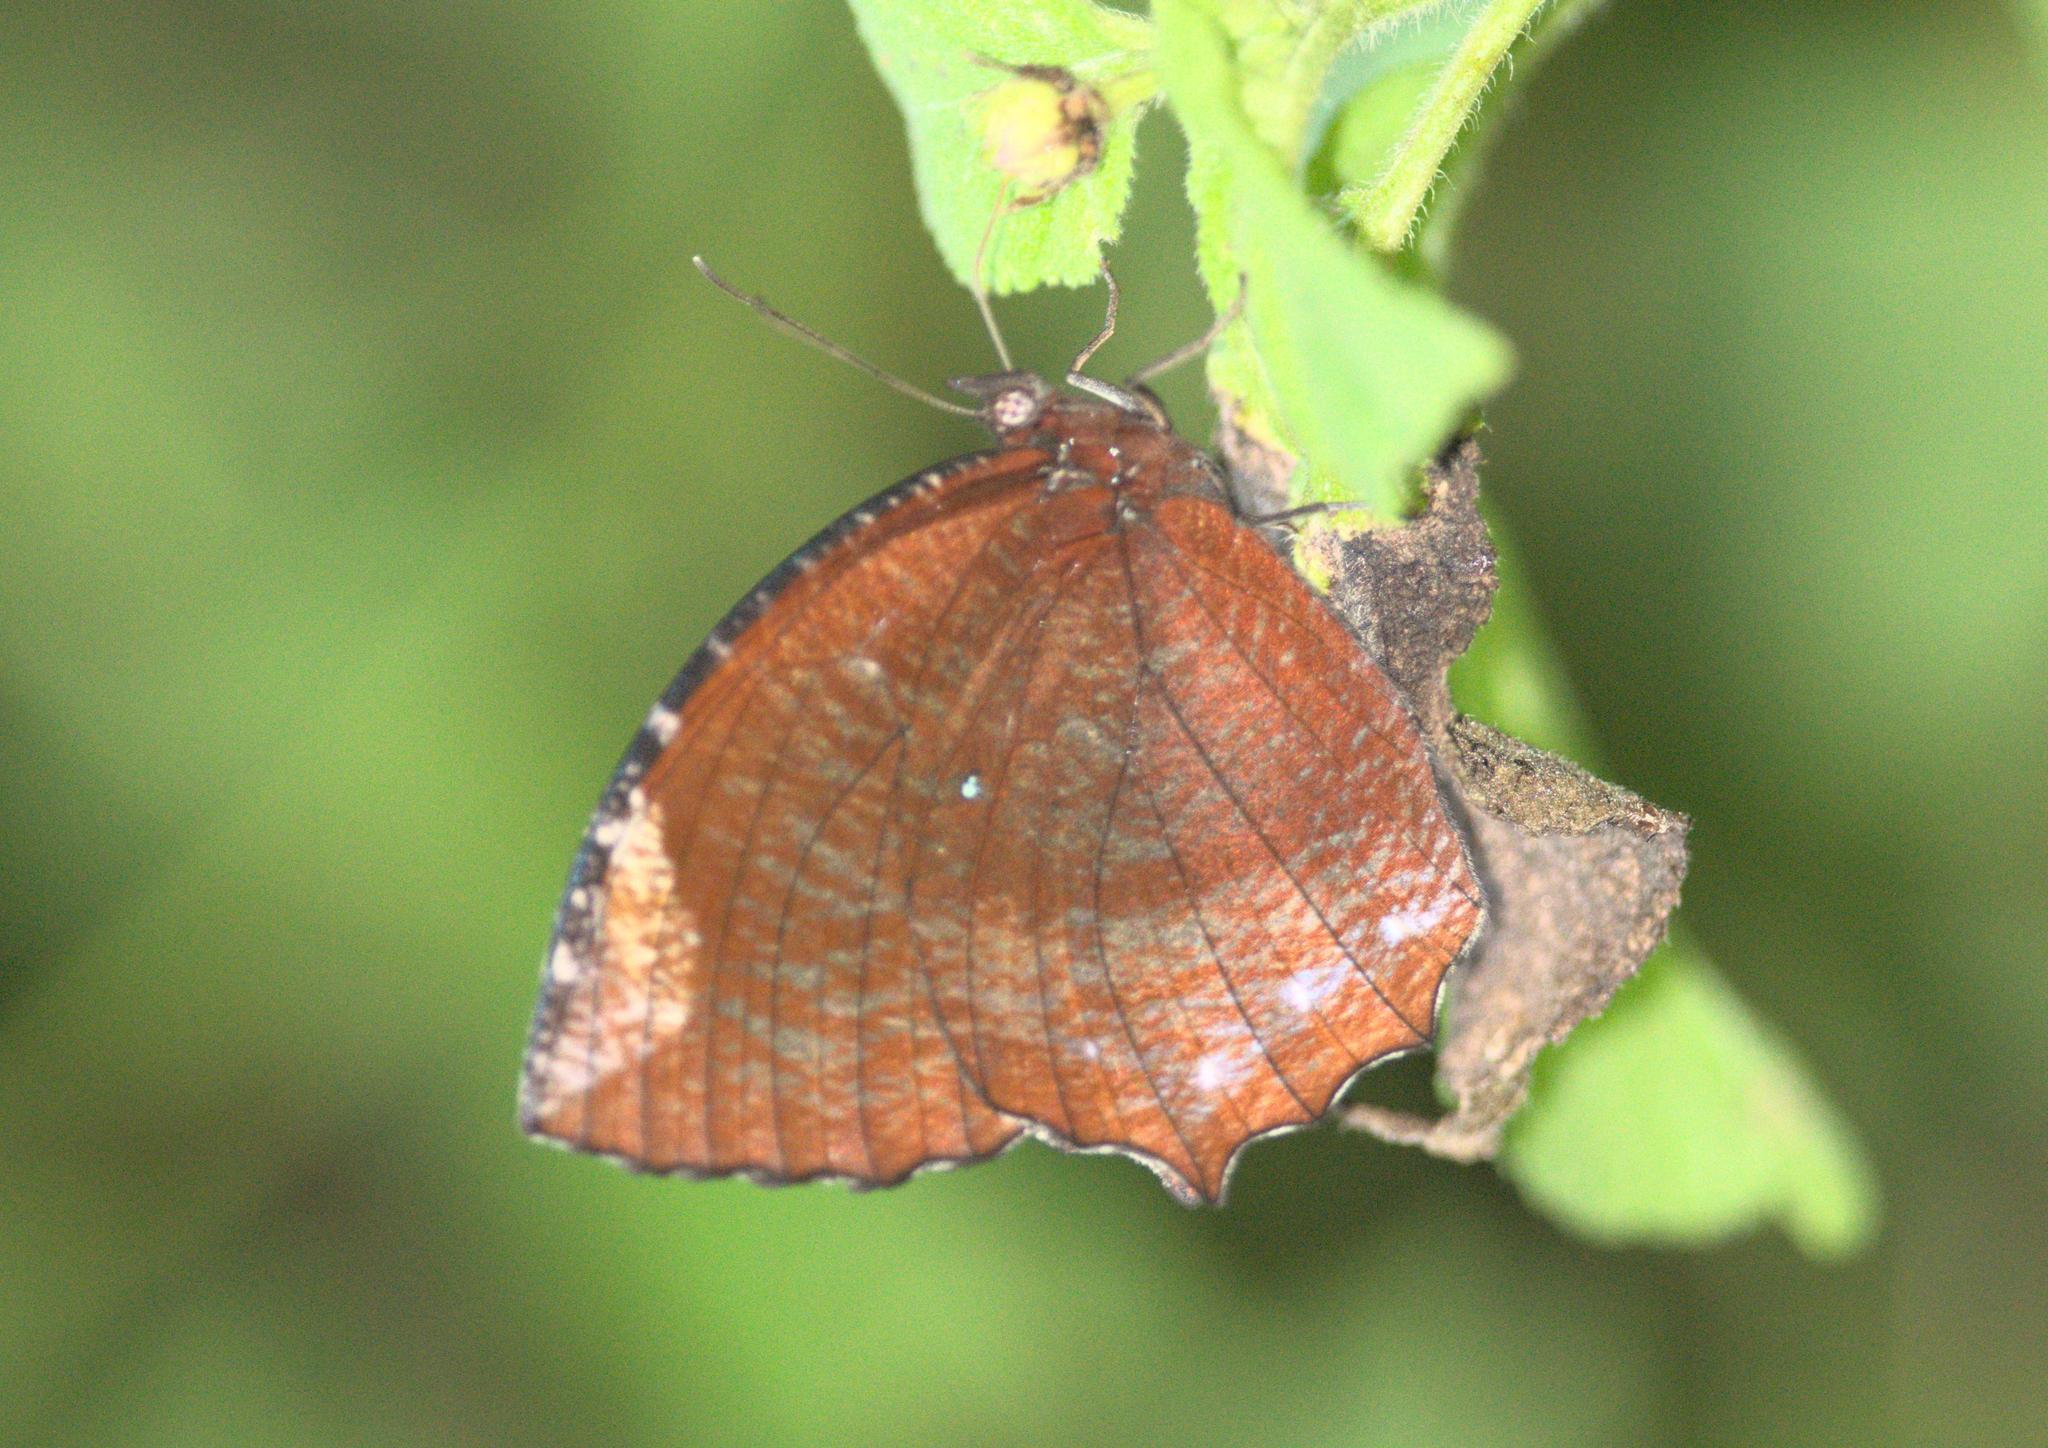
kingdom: Animalia
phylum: Arthropoda
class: Insecta
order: Lepidoptera
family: Nymphalidae
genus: Elymnias
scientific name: Elymnias hypermnestra
